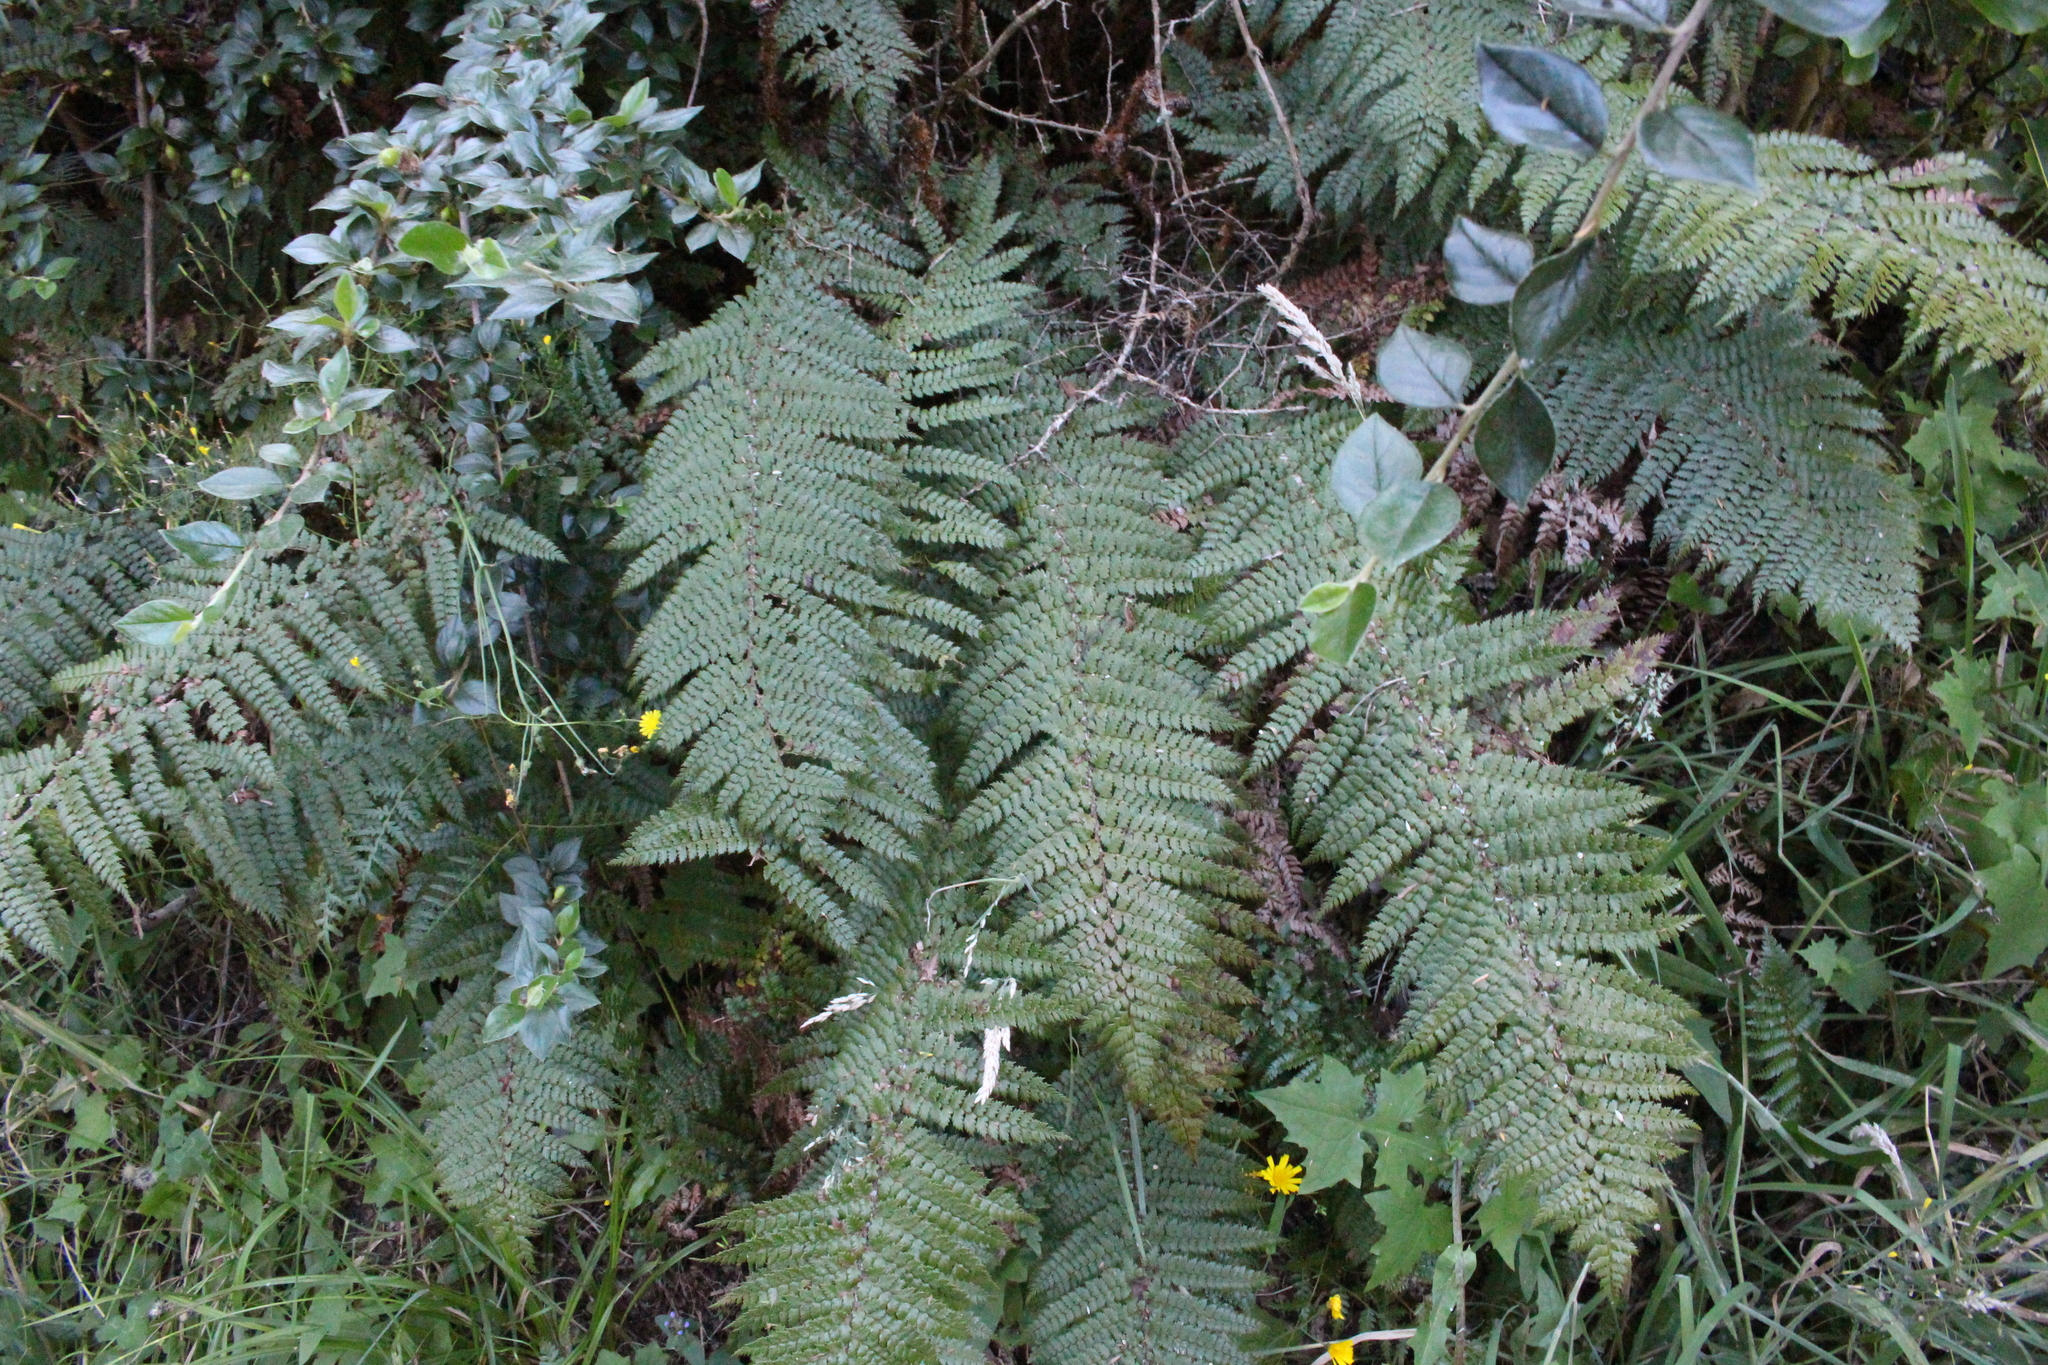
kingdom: Plantae
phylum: Tracheophyta
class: Polypodiopsida
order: Polypodiales
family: Dryopteridaceae
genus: Polystichum
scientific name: Polystichum vestitum
